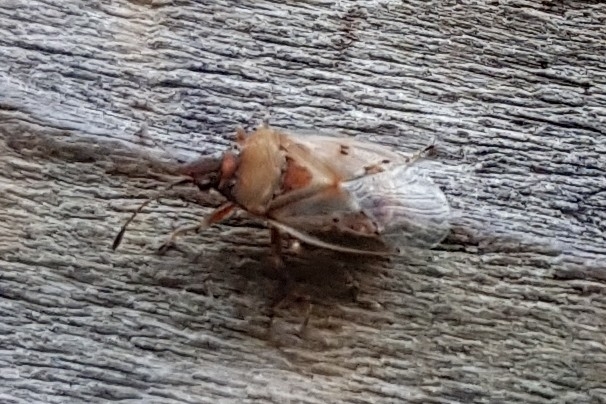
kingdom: Animalia
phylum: Arthropoda
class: Insecta
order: Hemiptera
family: Lygaeidae
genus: Kleidocerys
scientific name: Kleidocerys resedae
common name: Birch catkin bug
